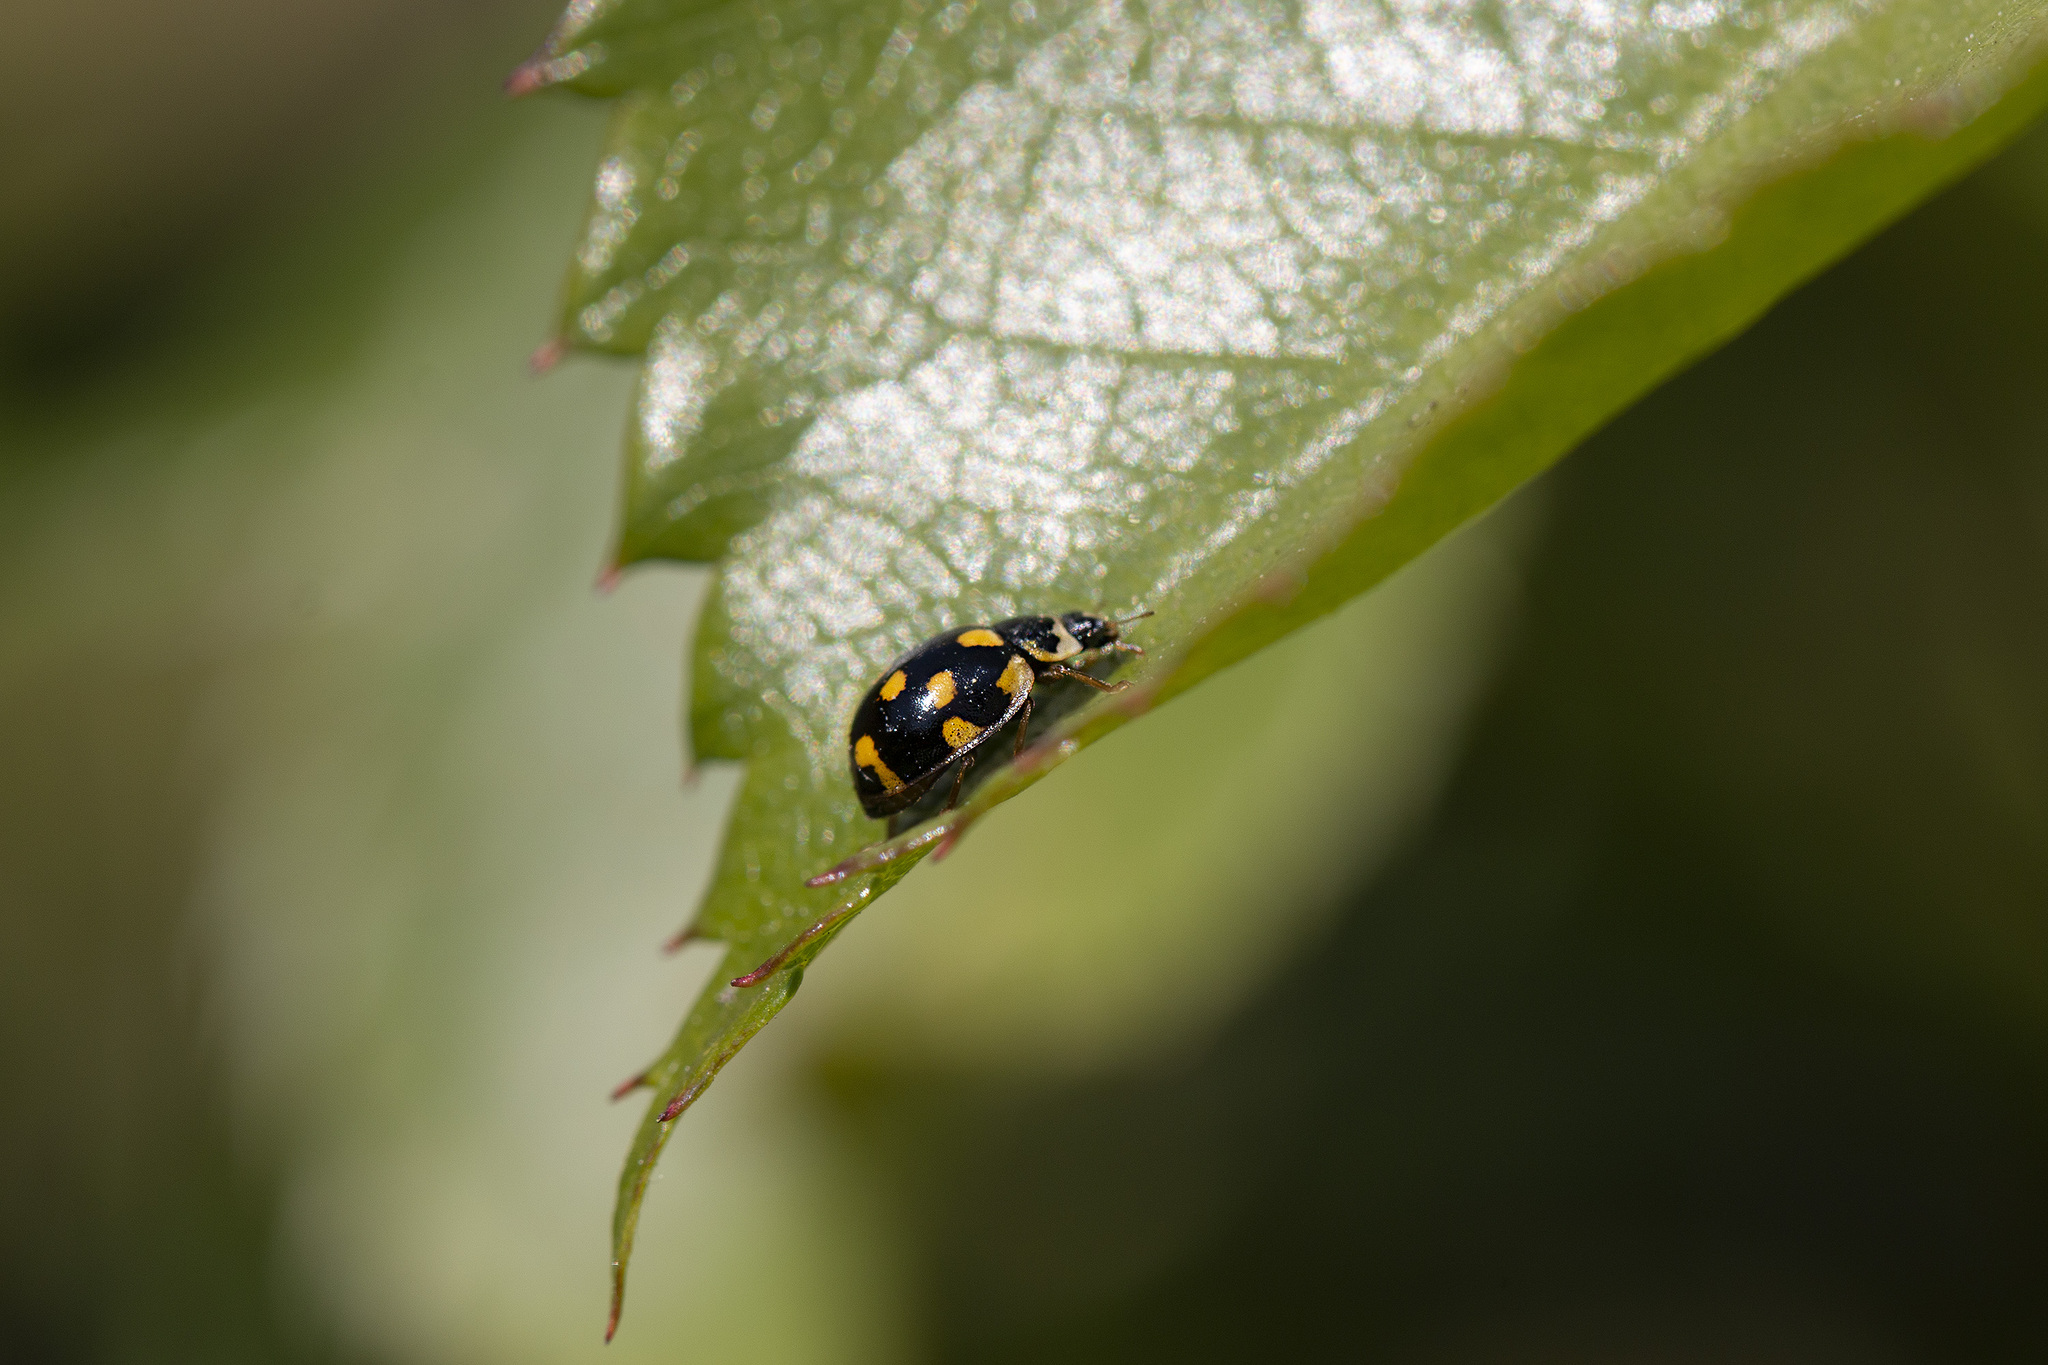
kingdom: Animalia
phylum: Arthropoda
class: Insecta
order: Coleoptera
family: Coccinellidae
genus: Propylaea
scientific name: Propylaea quatuordecimpunctata
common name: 14-spotted ladybird beetle
